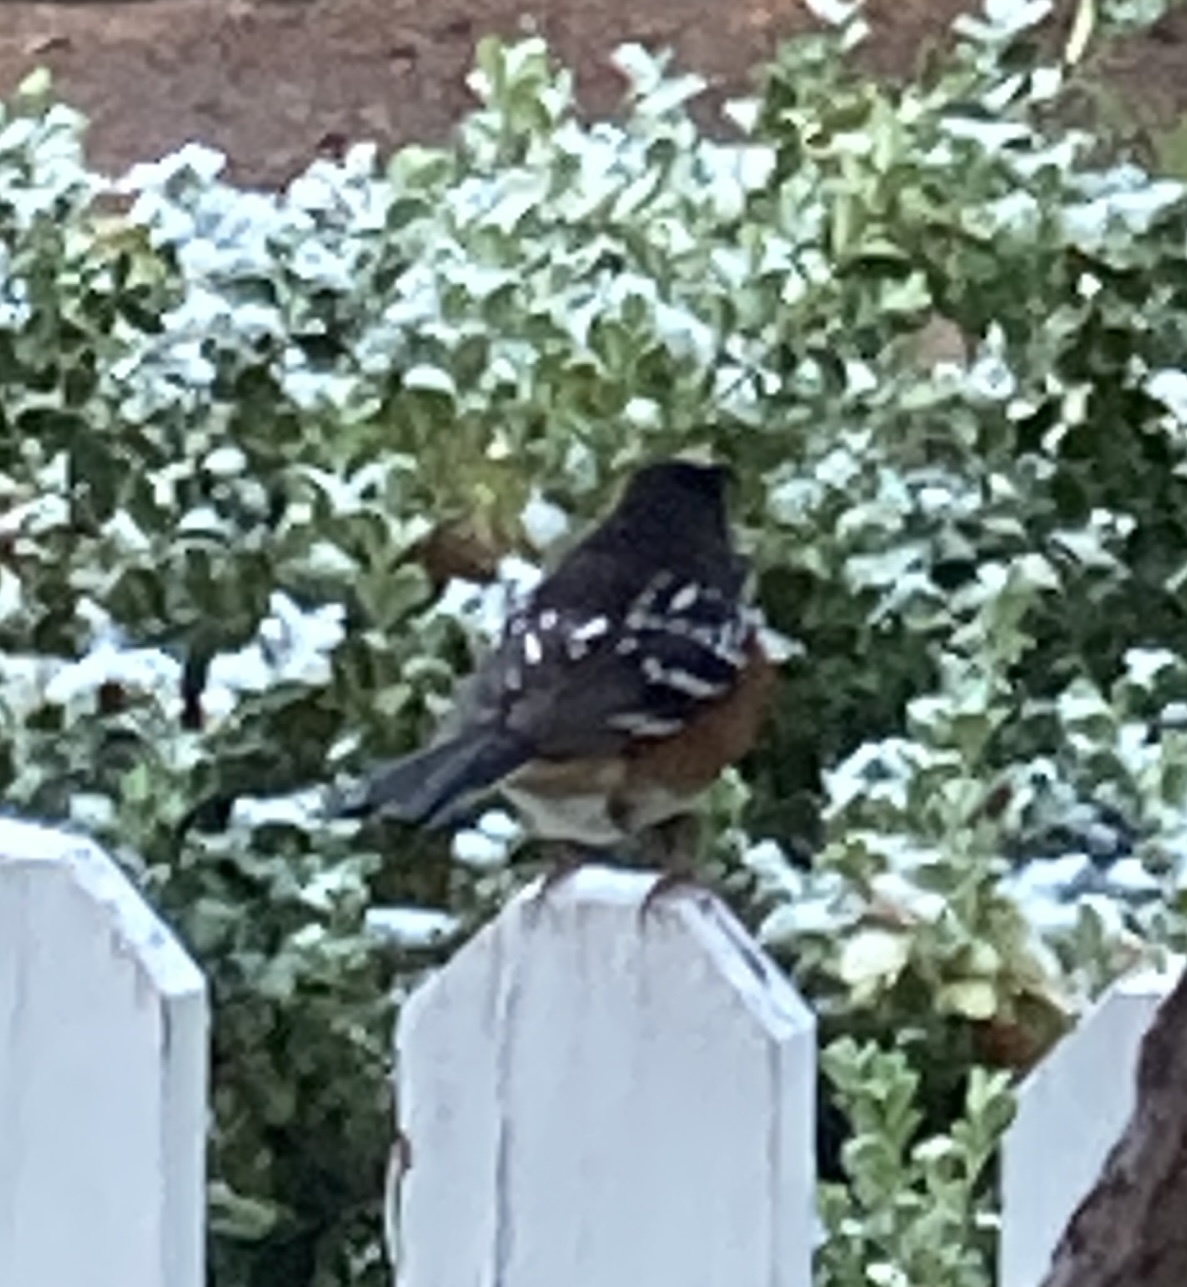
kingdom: Animalia
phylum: Chordata
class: Aves
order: Passeriformes
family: Passerellidae
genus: Pipilo
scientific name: Pipilo maculatus
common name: Spotted towhee
